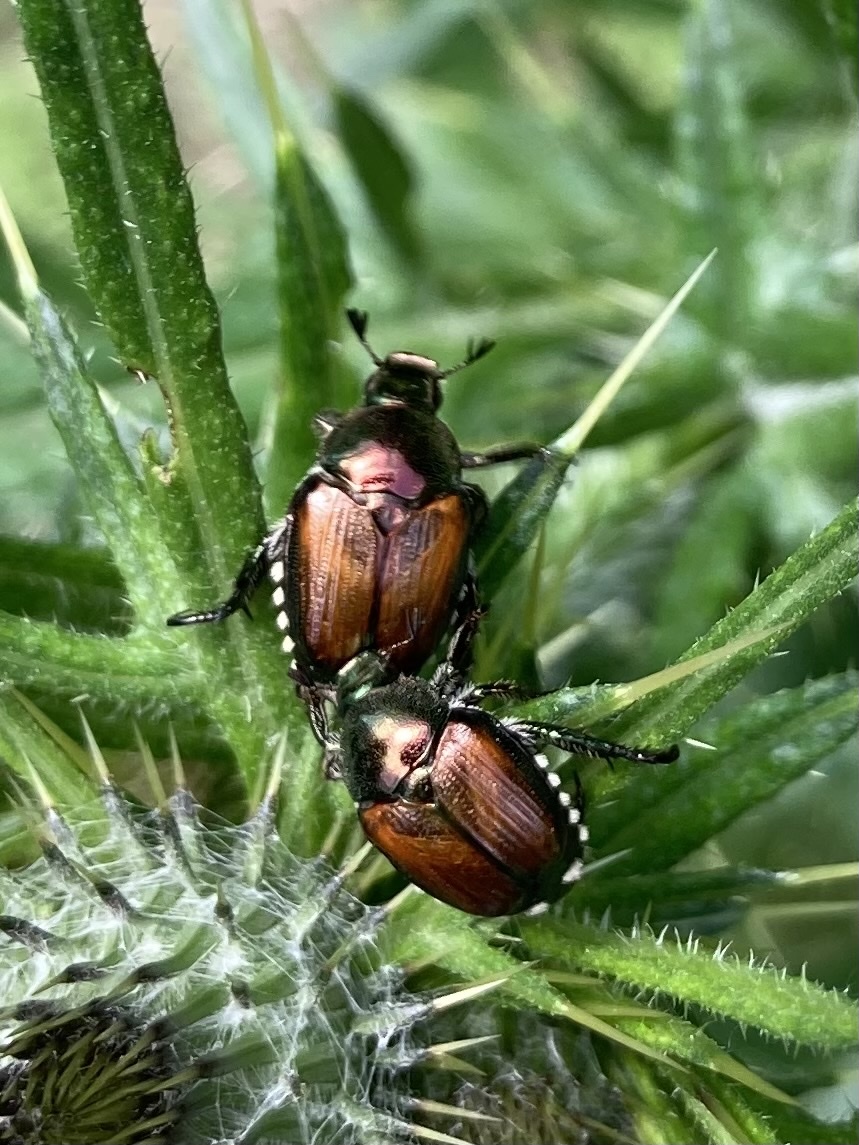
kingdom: Animalia
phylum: Arthropoda
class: Insecta
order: Coleoptera
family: Scarabaeidae
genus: Popillia
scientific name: Popillia japonica
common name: Japanese beetle
